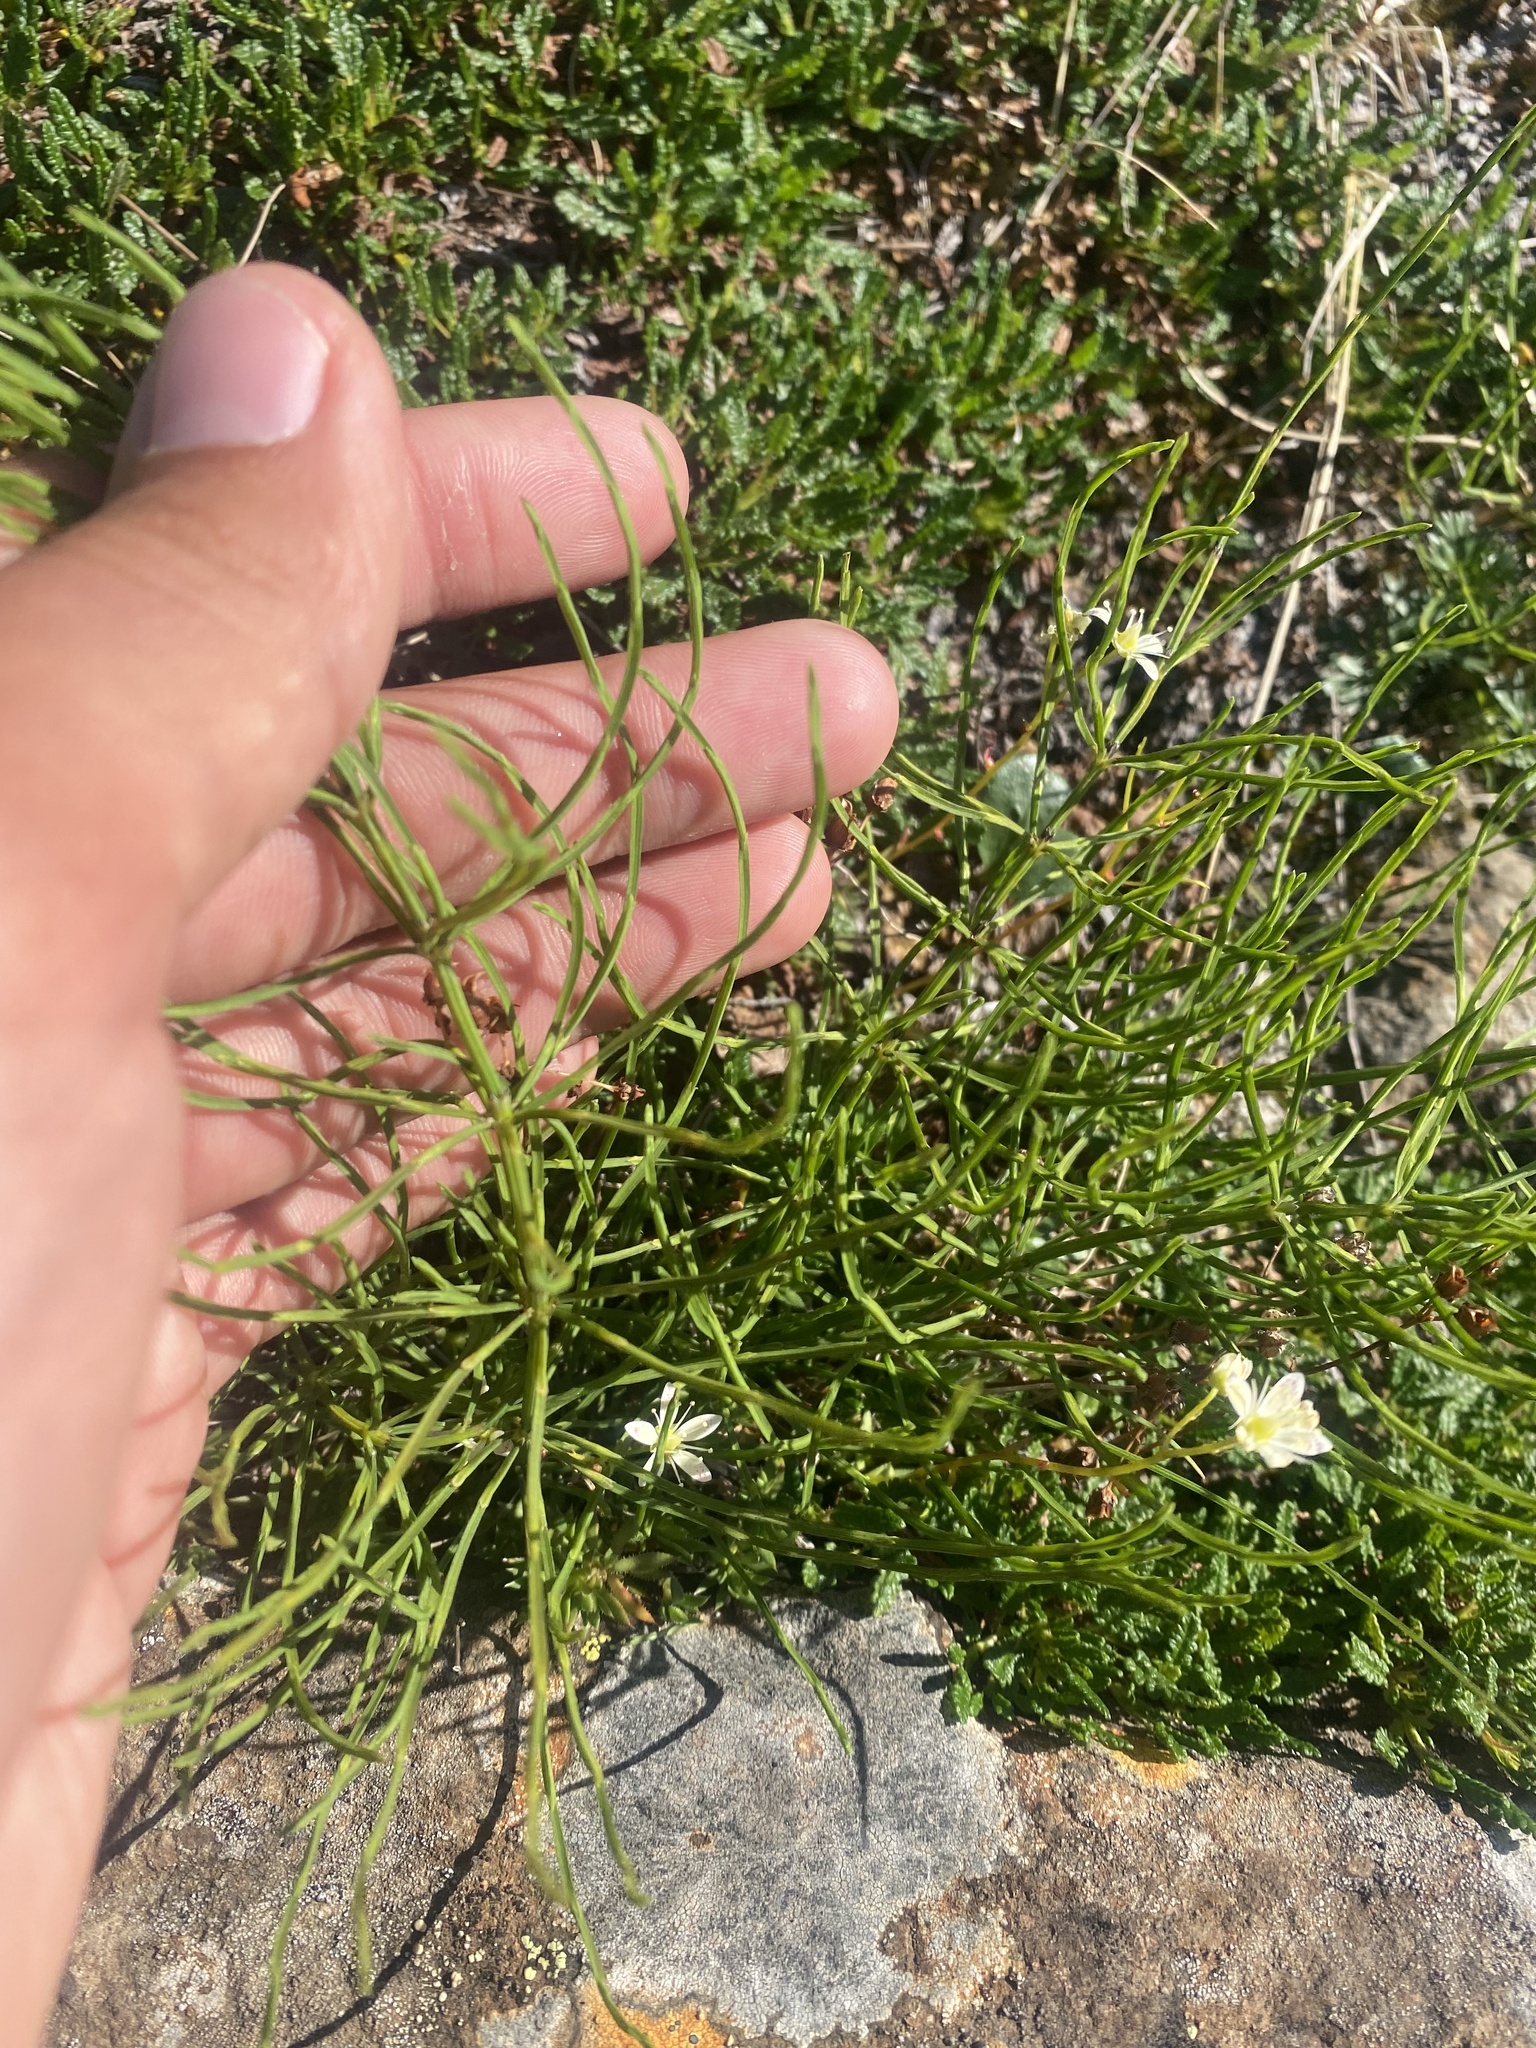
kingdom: Plantae
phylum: Tracheophyta
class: Polypodiopsida
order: Equisetales
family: Equisetaceae
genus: Equisetum
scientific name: Equisetum arvense
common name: Field horsetail
